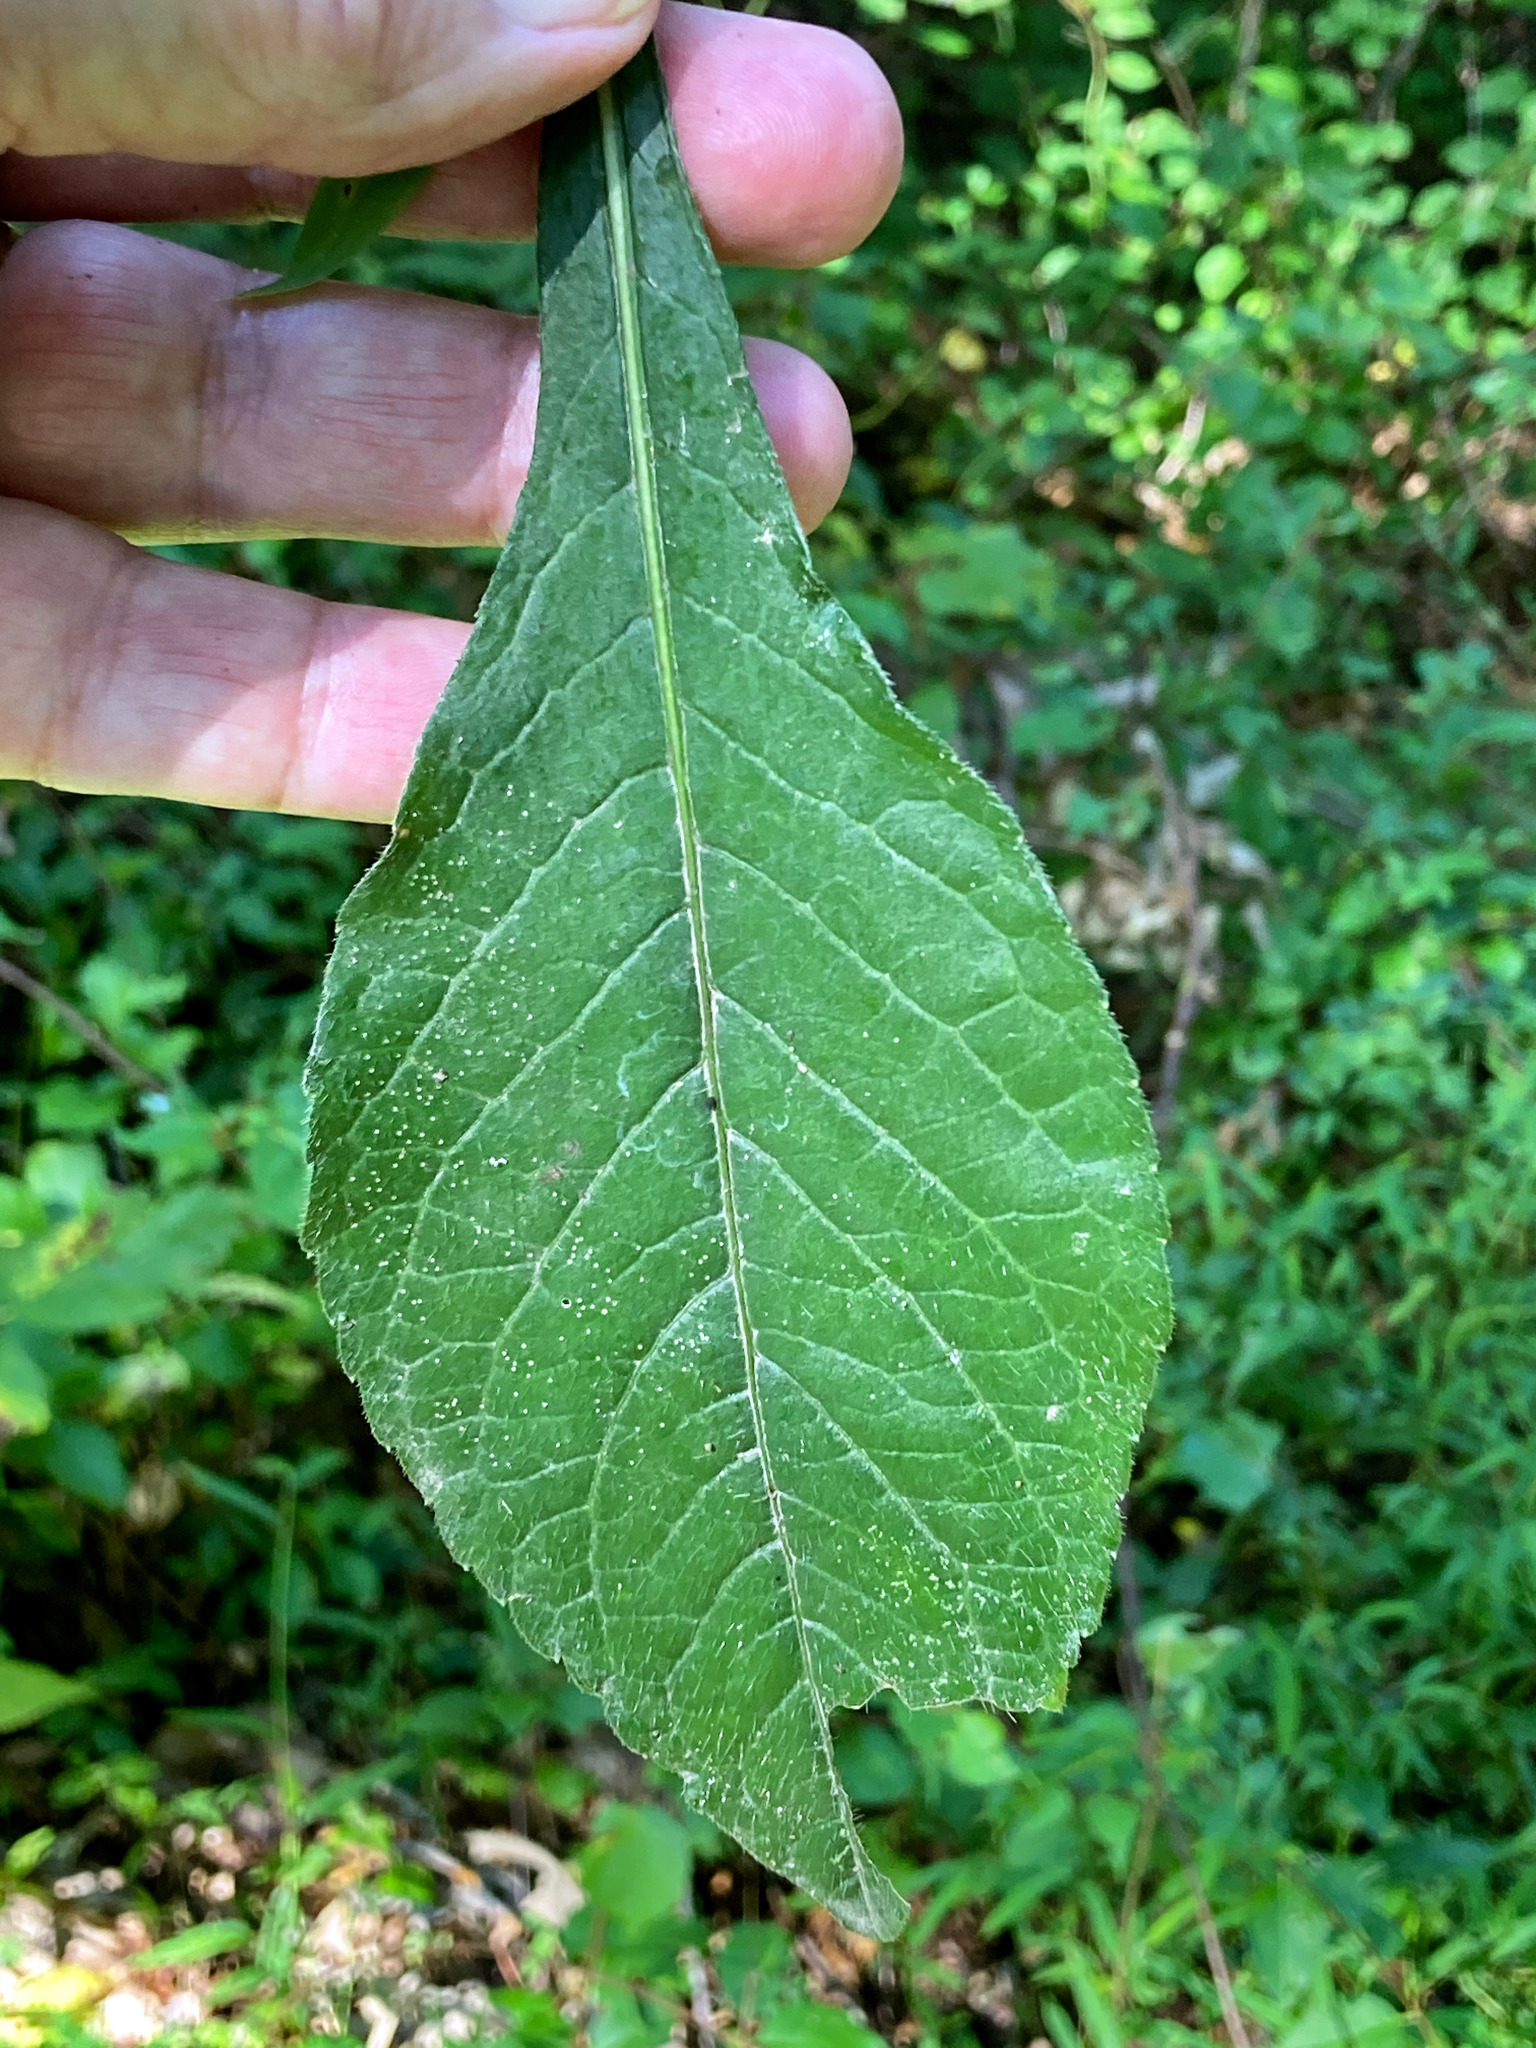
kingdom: Plantae
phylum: Tracheophyta
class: Magnoliopsida
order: Asterales
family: Asteraceae
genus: Elephantopus
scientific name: Elephantopus carolinianus
